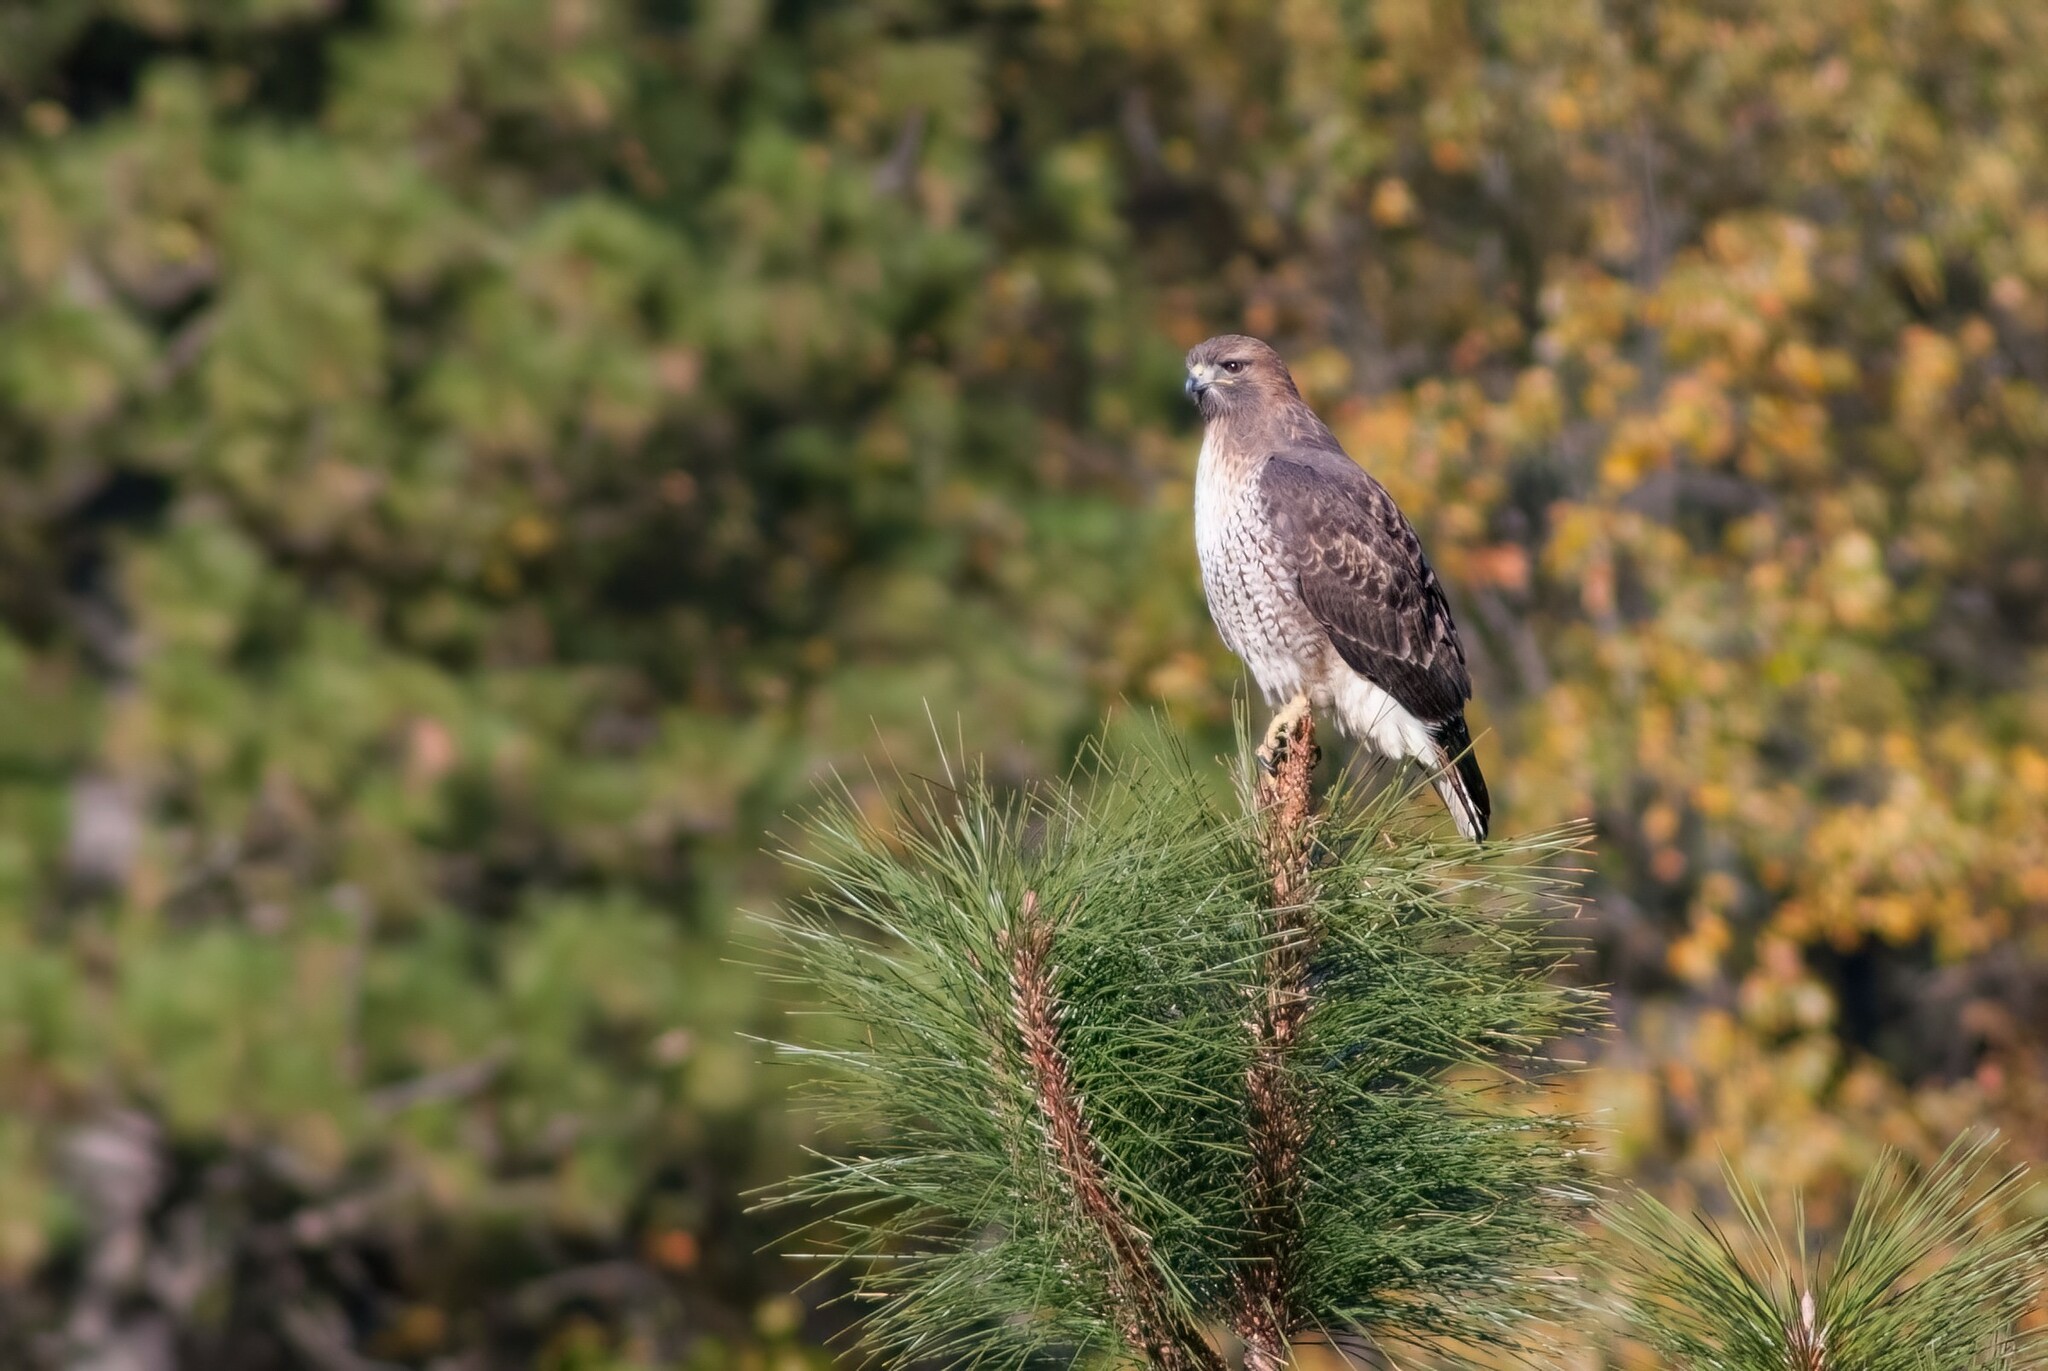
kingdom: Animalia
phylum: Chordata
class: Aves
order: Accipitriformes
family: Accipitridae
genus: Buteo
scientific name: Buteo jamaicensis
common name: Red-tailed hawk
